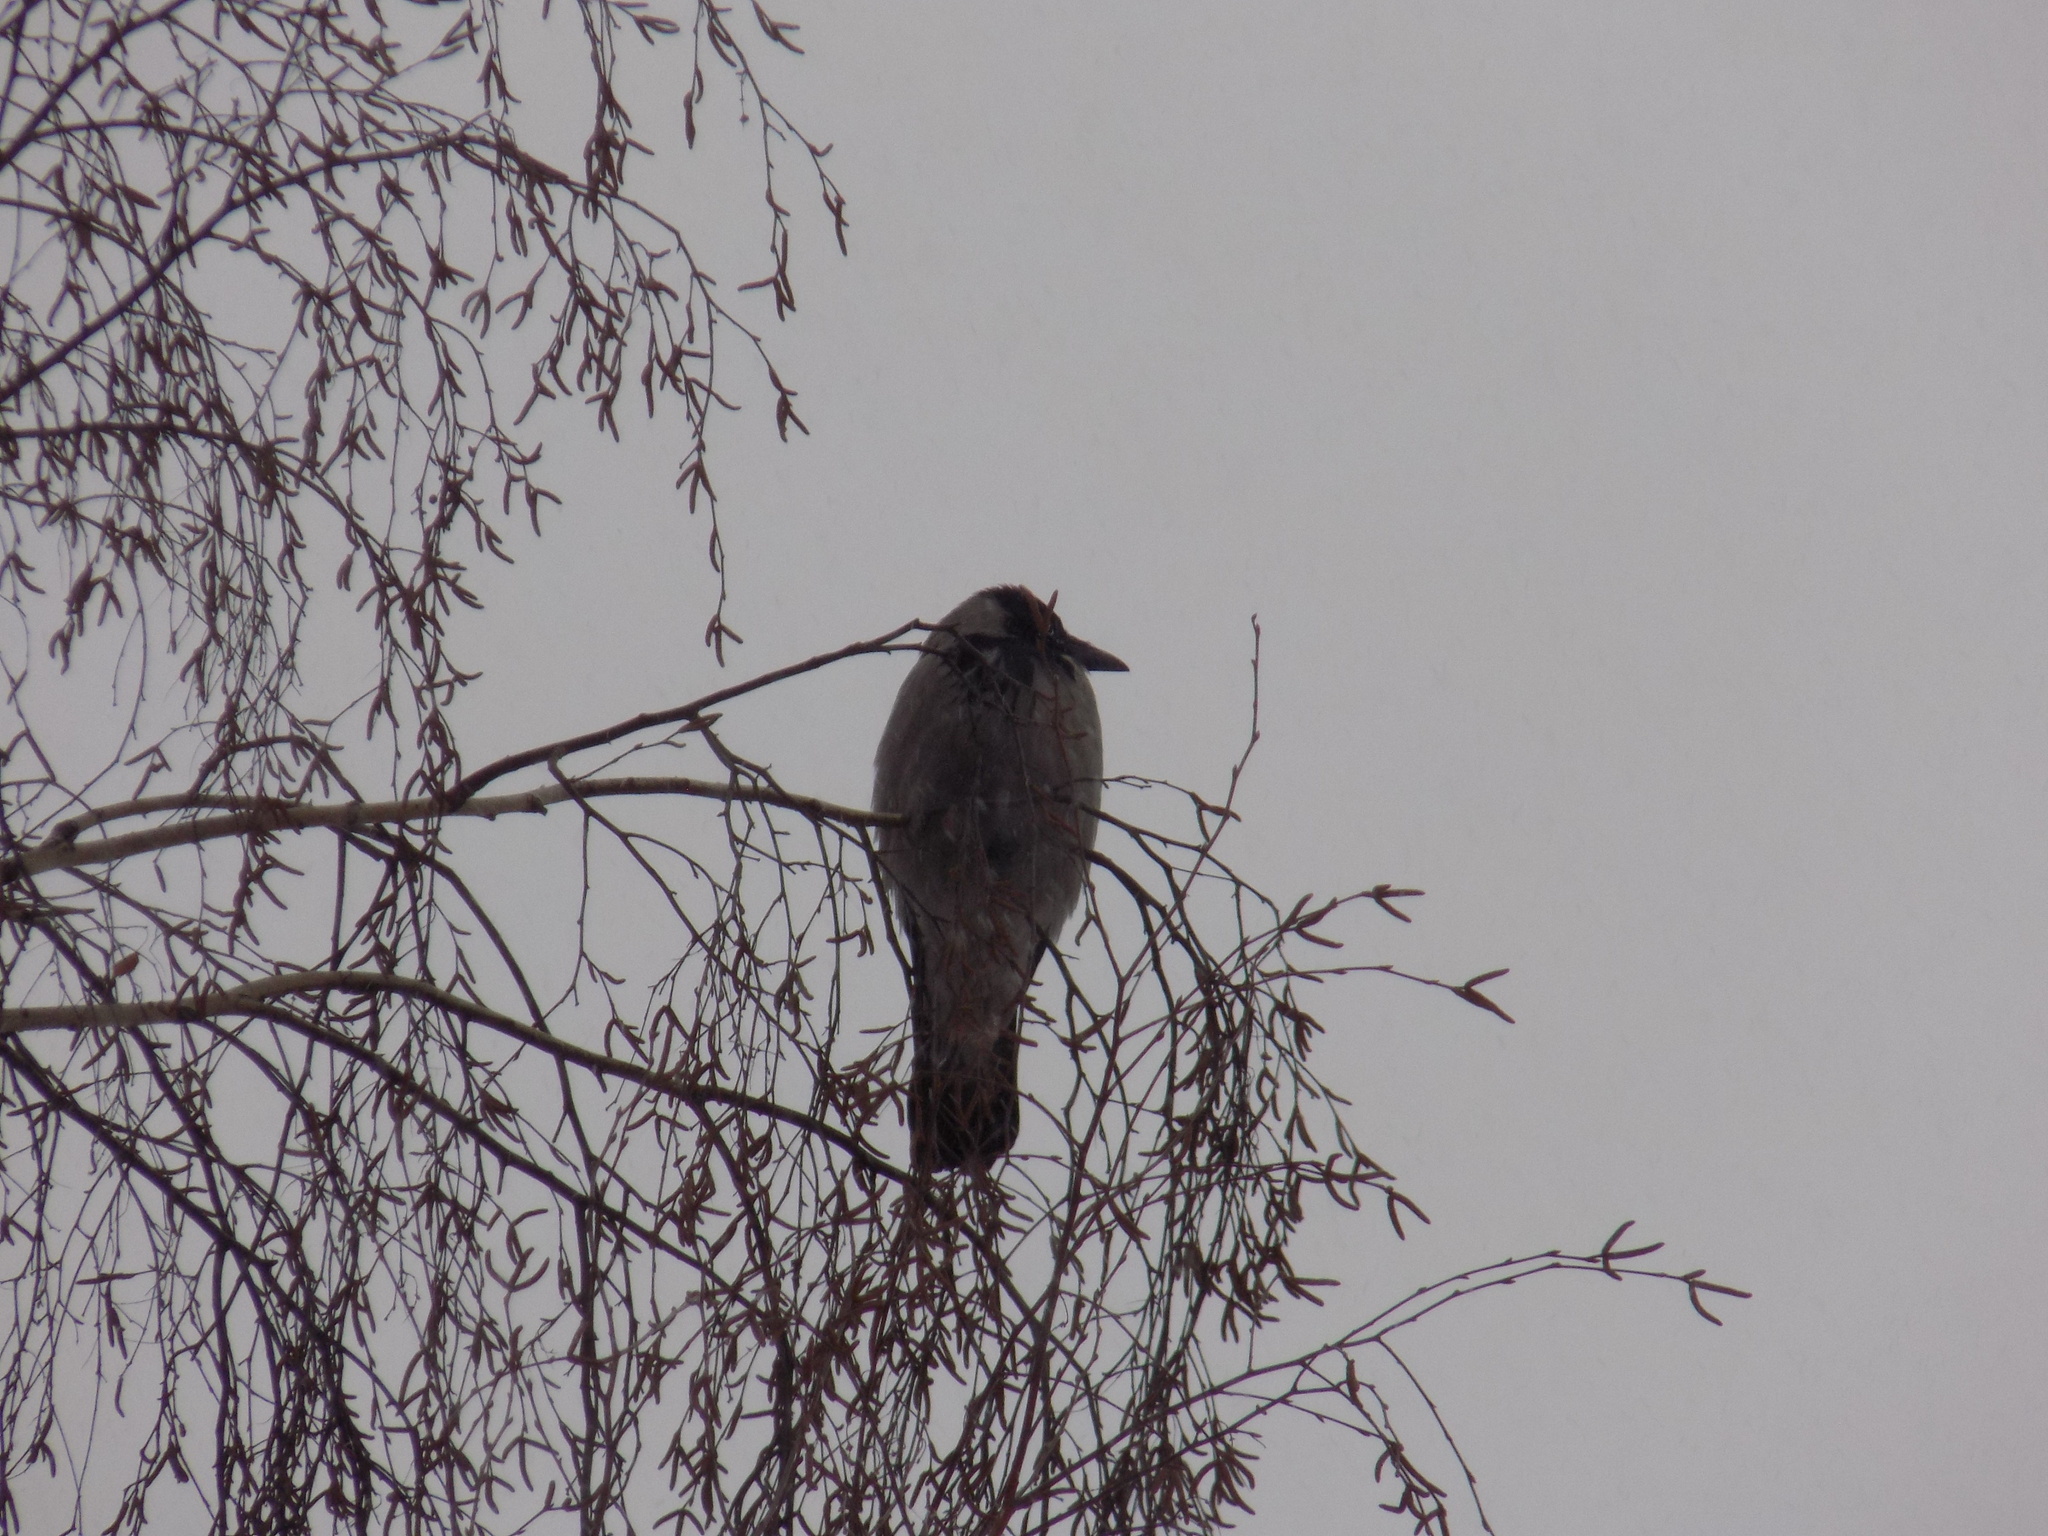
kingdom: Animalia
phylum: Chordata
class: Aves
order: Passeriformes
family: Corvidae
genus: Corvus
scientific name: Corvus cornix
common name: Hooded crow
